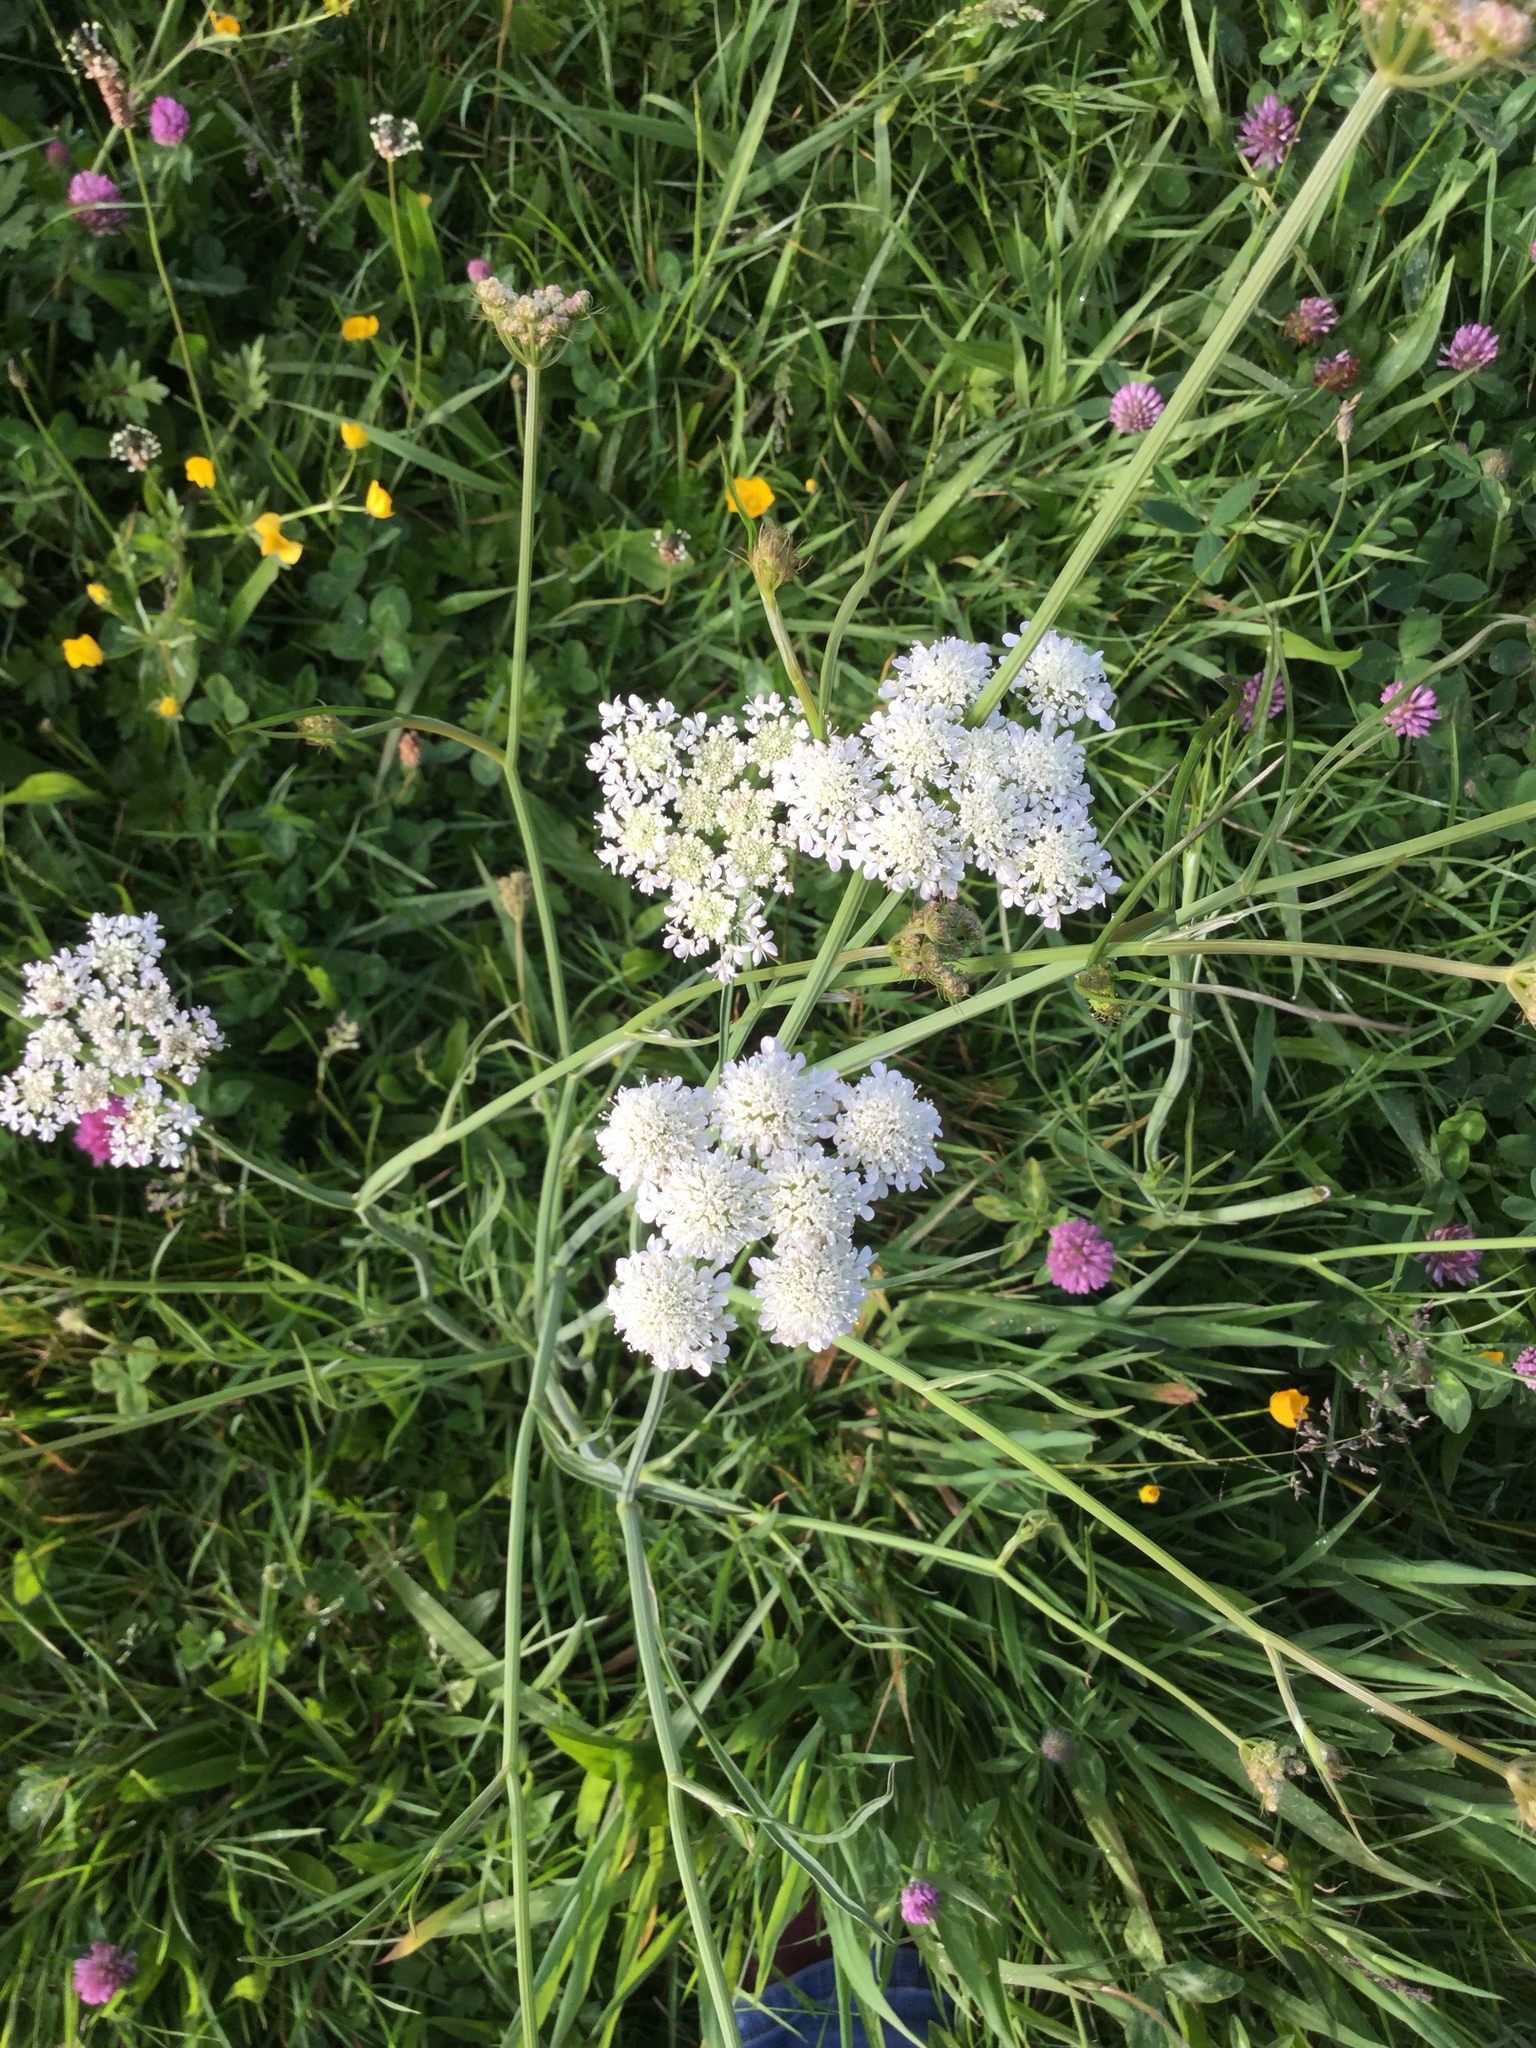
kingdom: Plantae
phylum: Tracheophyta
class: Magnoliopsida
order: Apiales
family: Apiaceae
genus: Daucus
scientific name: Daucus carota
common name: Wild carrot
